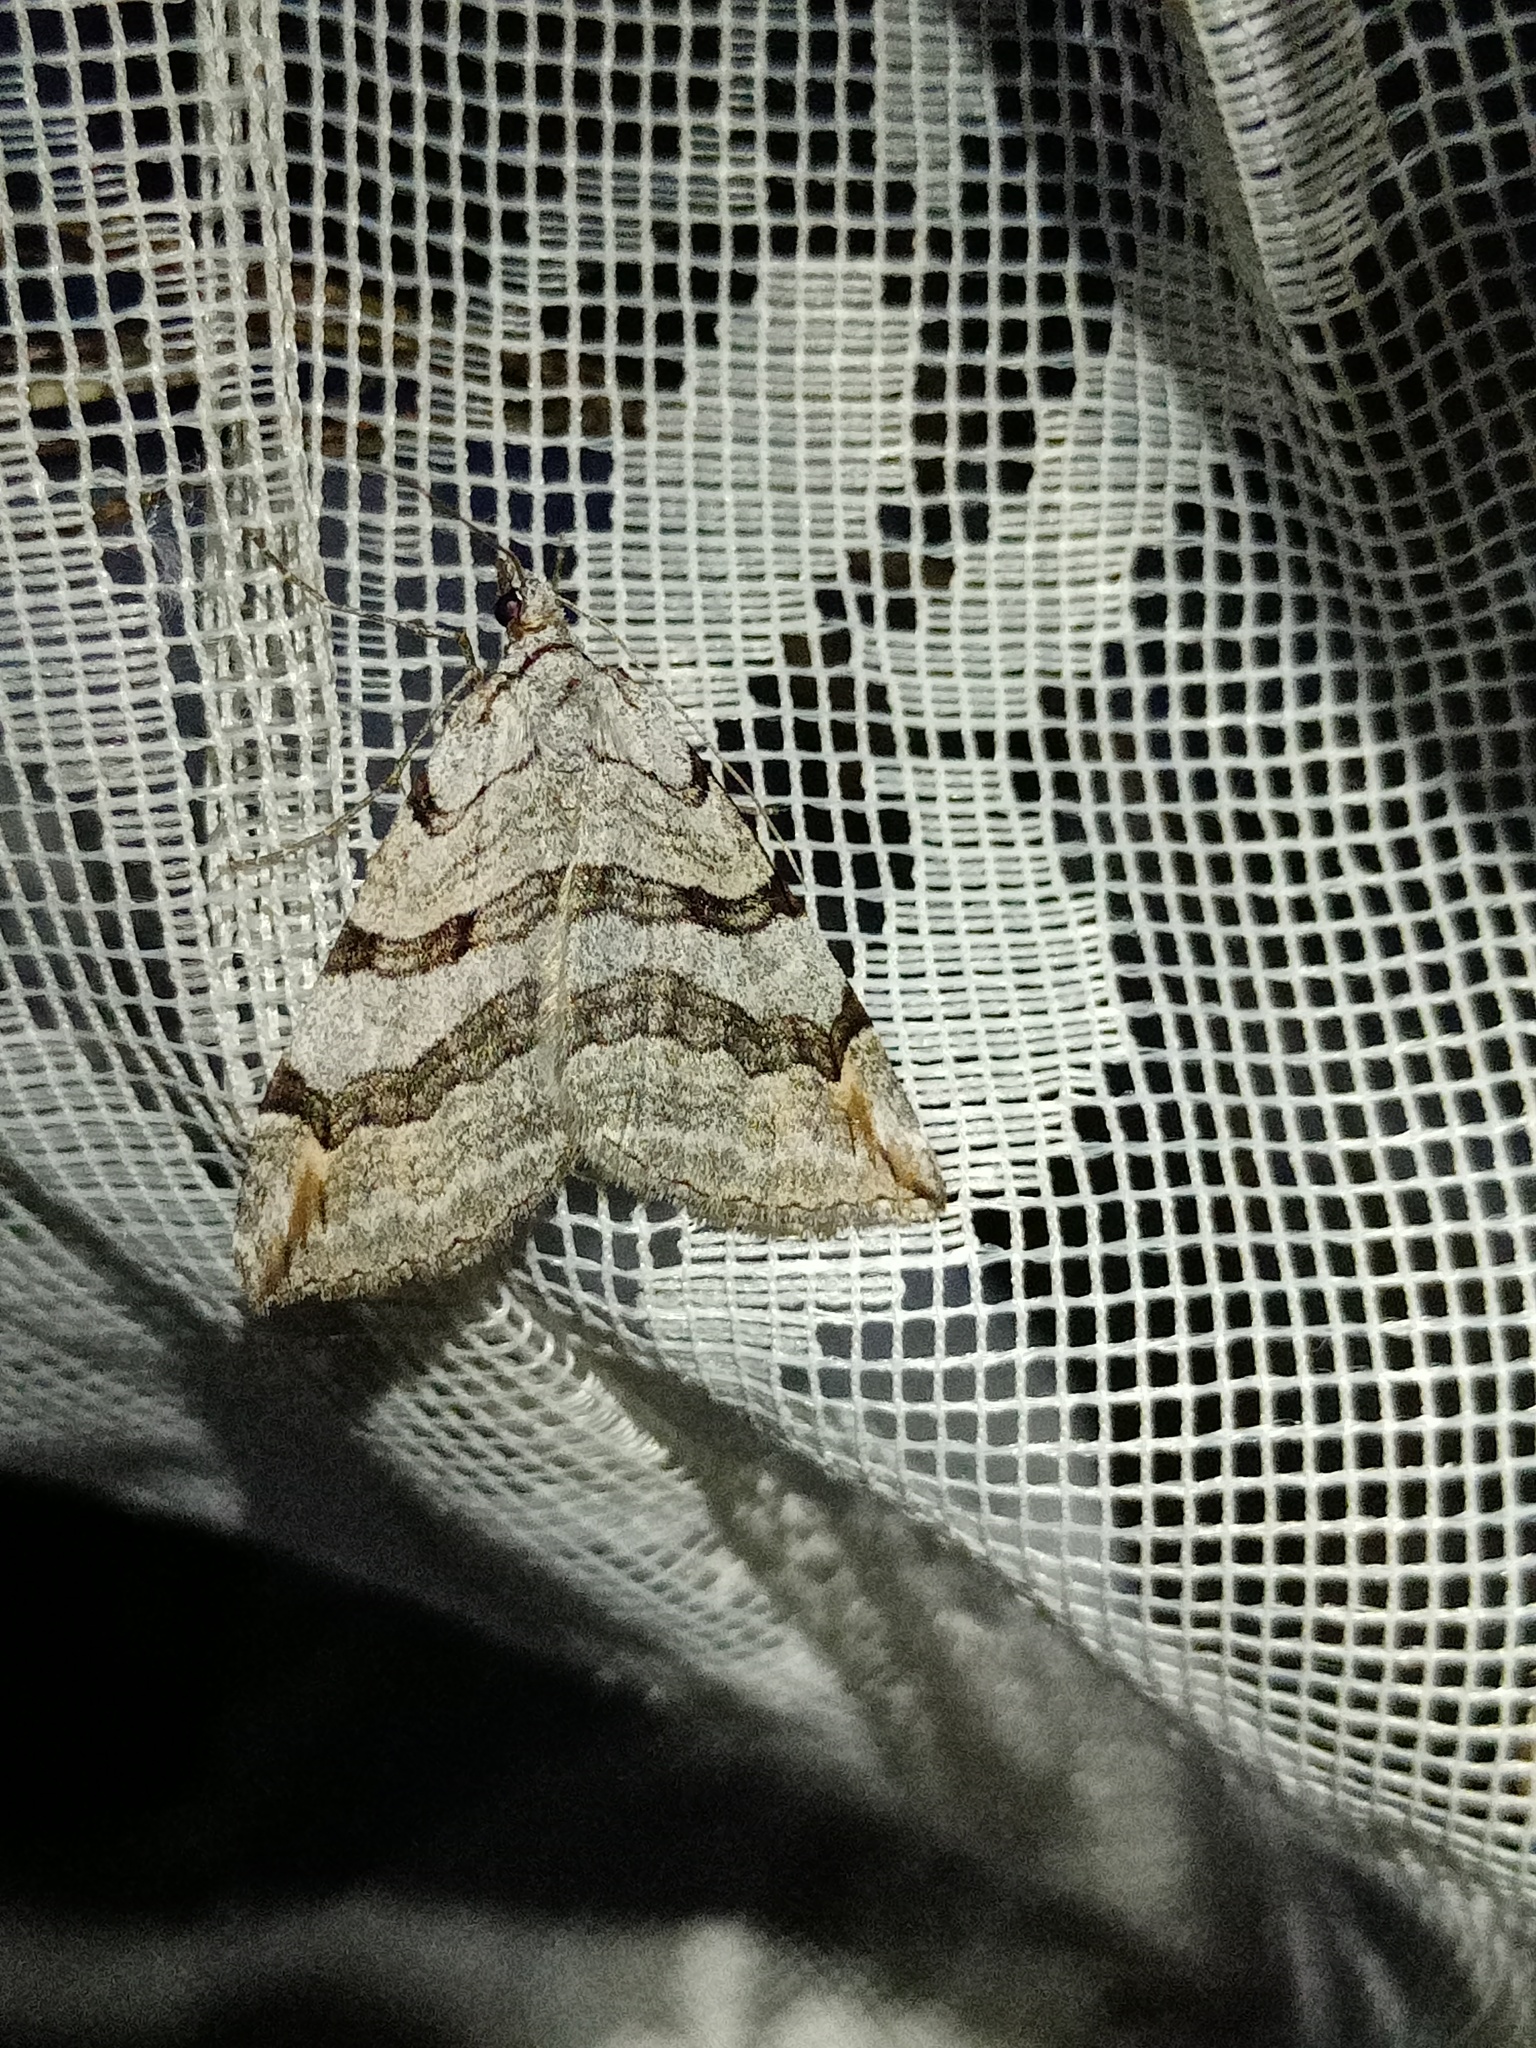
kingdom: Animalia
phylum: Arthropoda
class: Insecta
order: Lepidoptera
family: Geometridae
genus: Aplocera
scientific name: Aplocera plagiata
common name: Treble-bar
